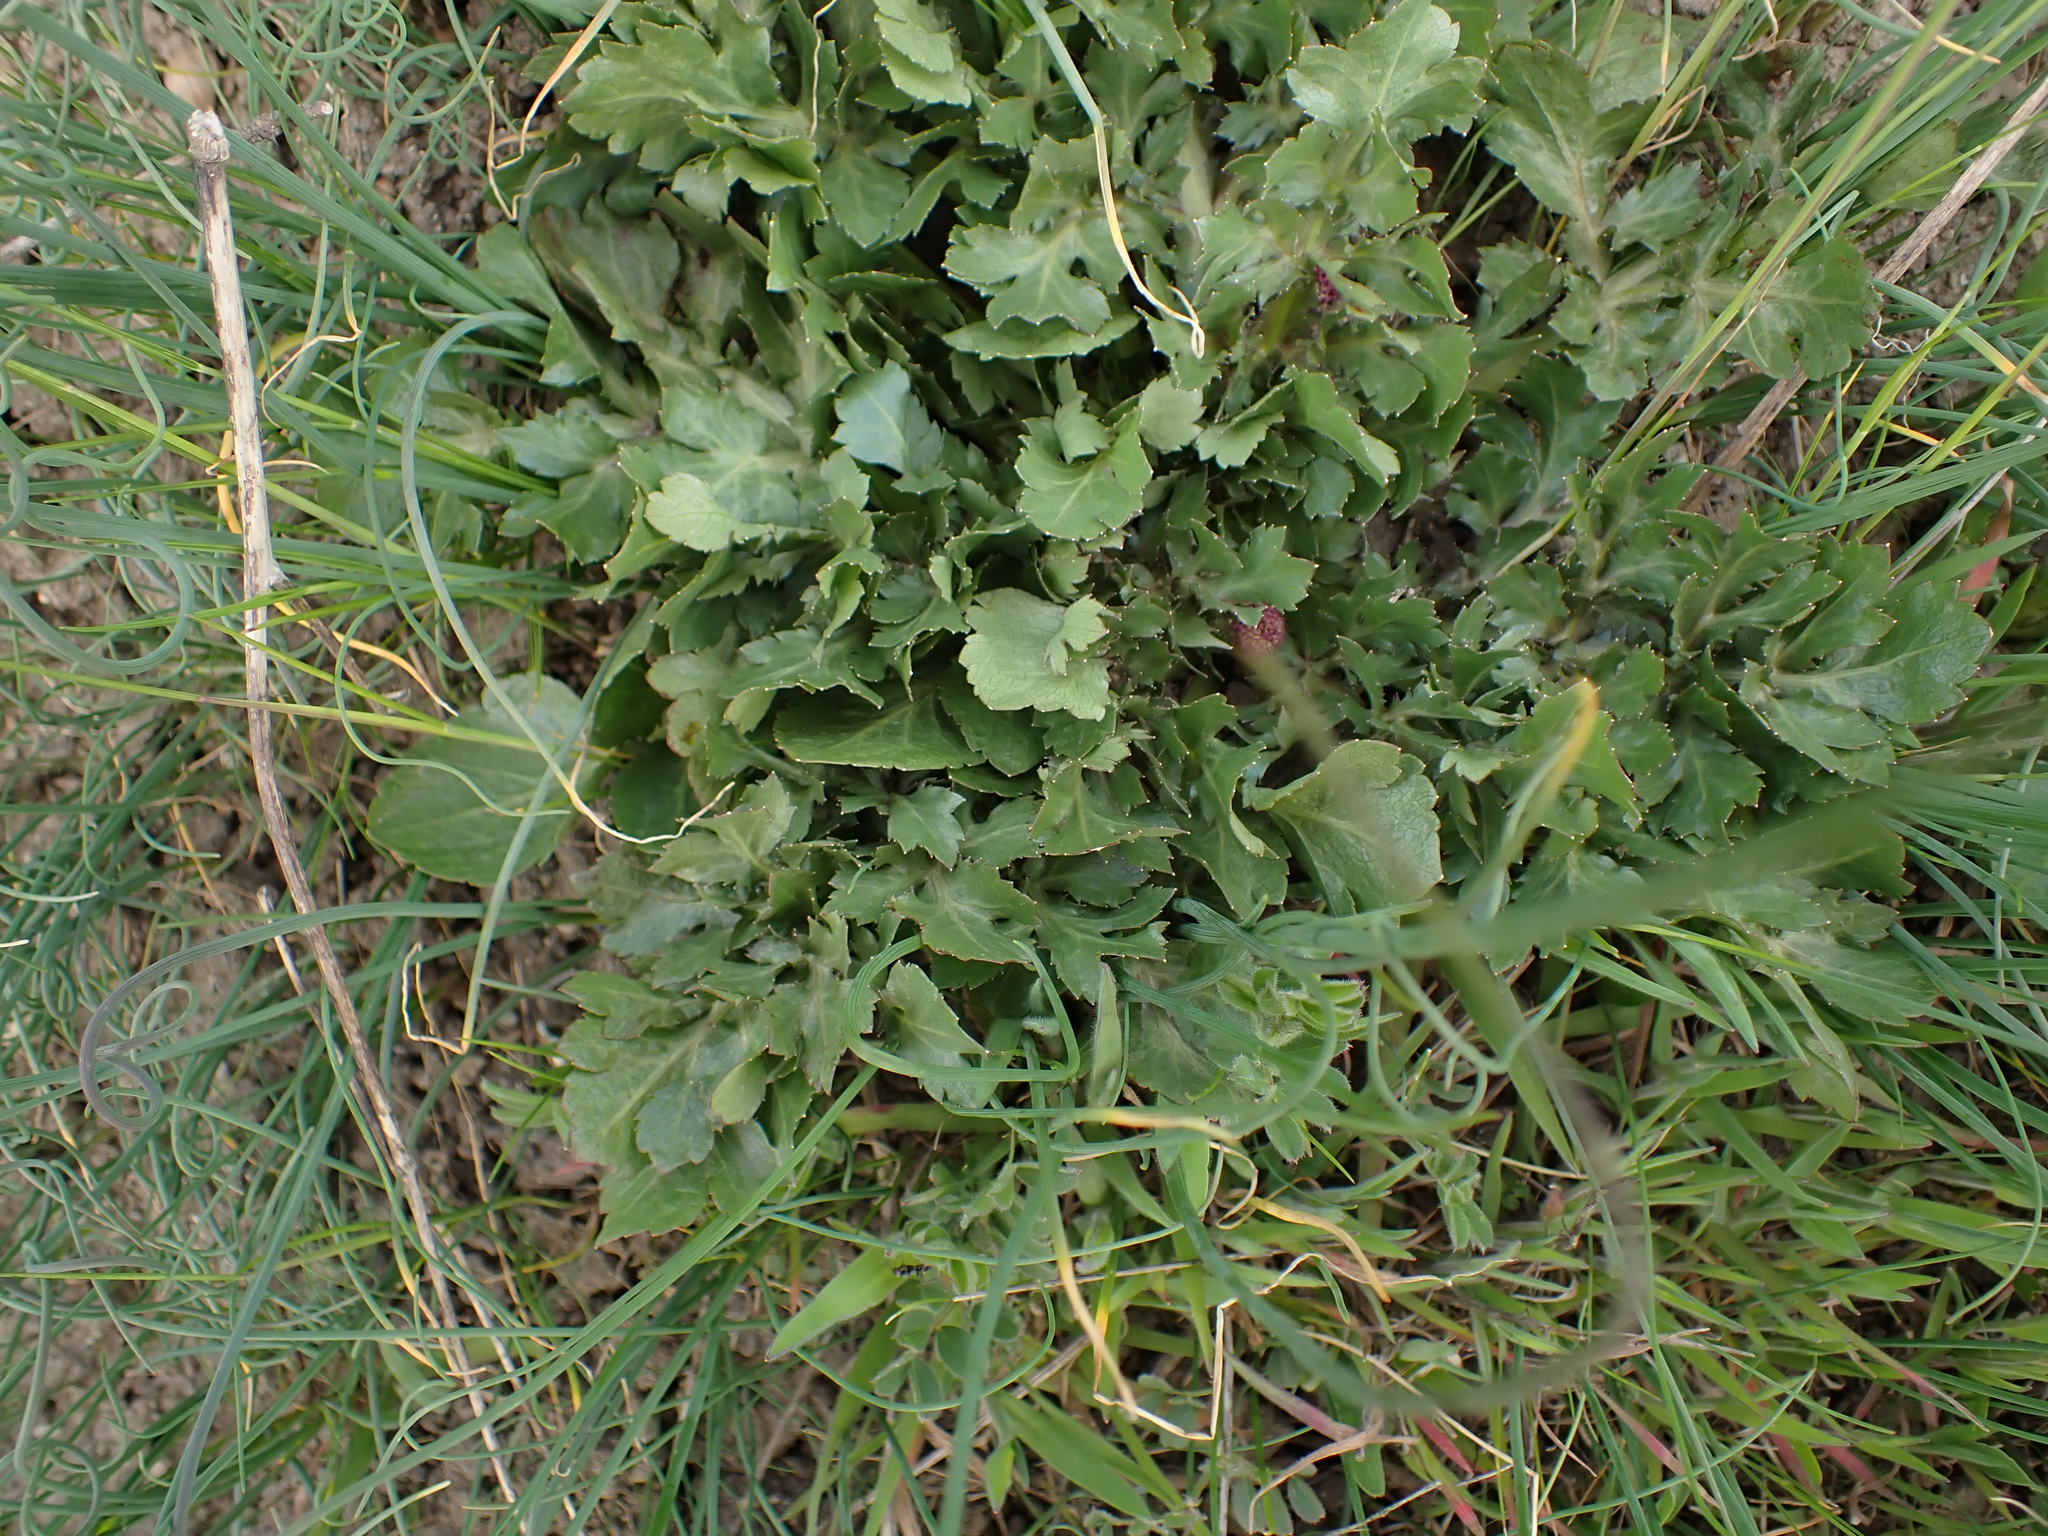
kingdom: Plantae
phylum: Tracheophyta
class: Magnoliopsida
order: Apiales
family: Apiaceae
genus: Sanicula
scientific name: Sanicula bipinnatifida
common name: Shoe-buttons
